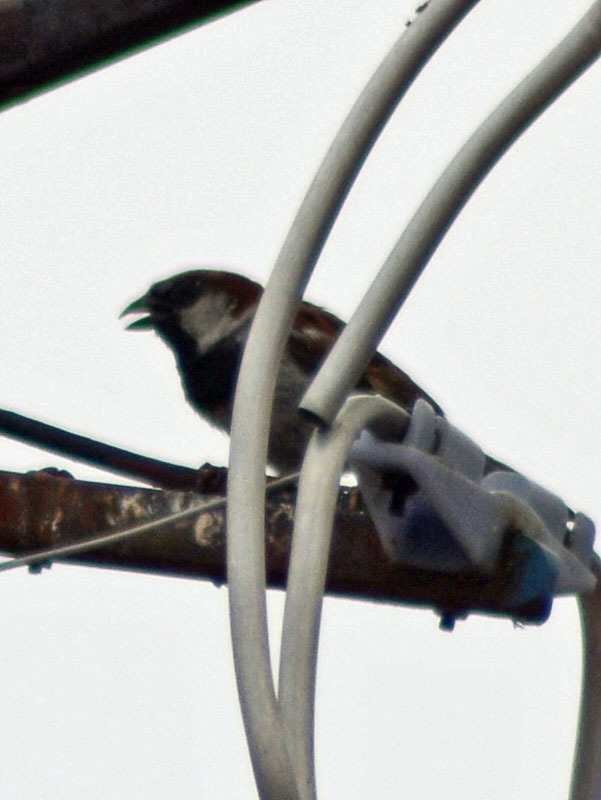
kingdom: Animalia
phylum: Chordata
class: Aves
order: Passeriformes
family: Passeridae
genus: Passer
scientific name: Passer domesticus
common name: House sparrow
